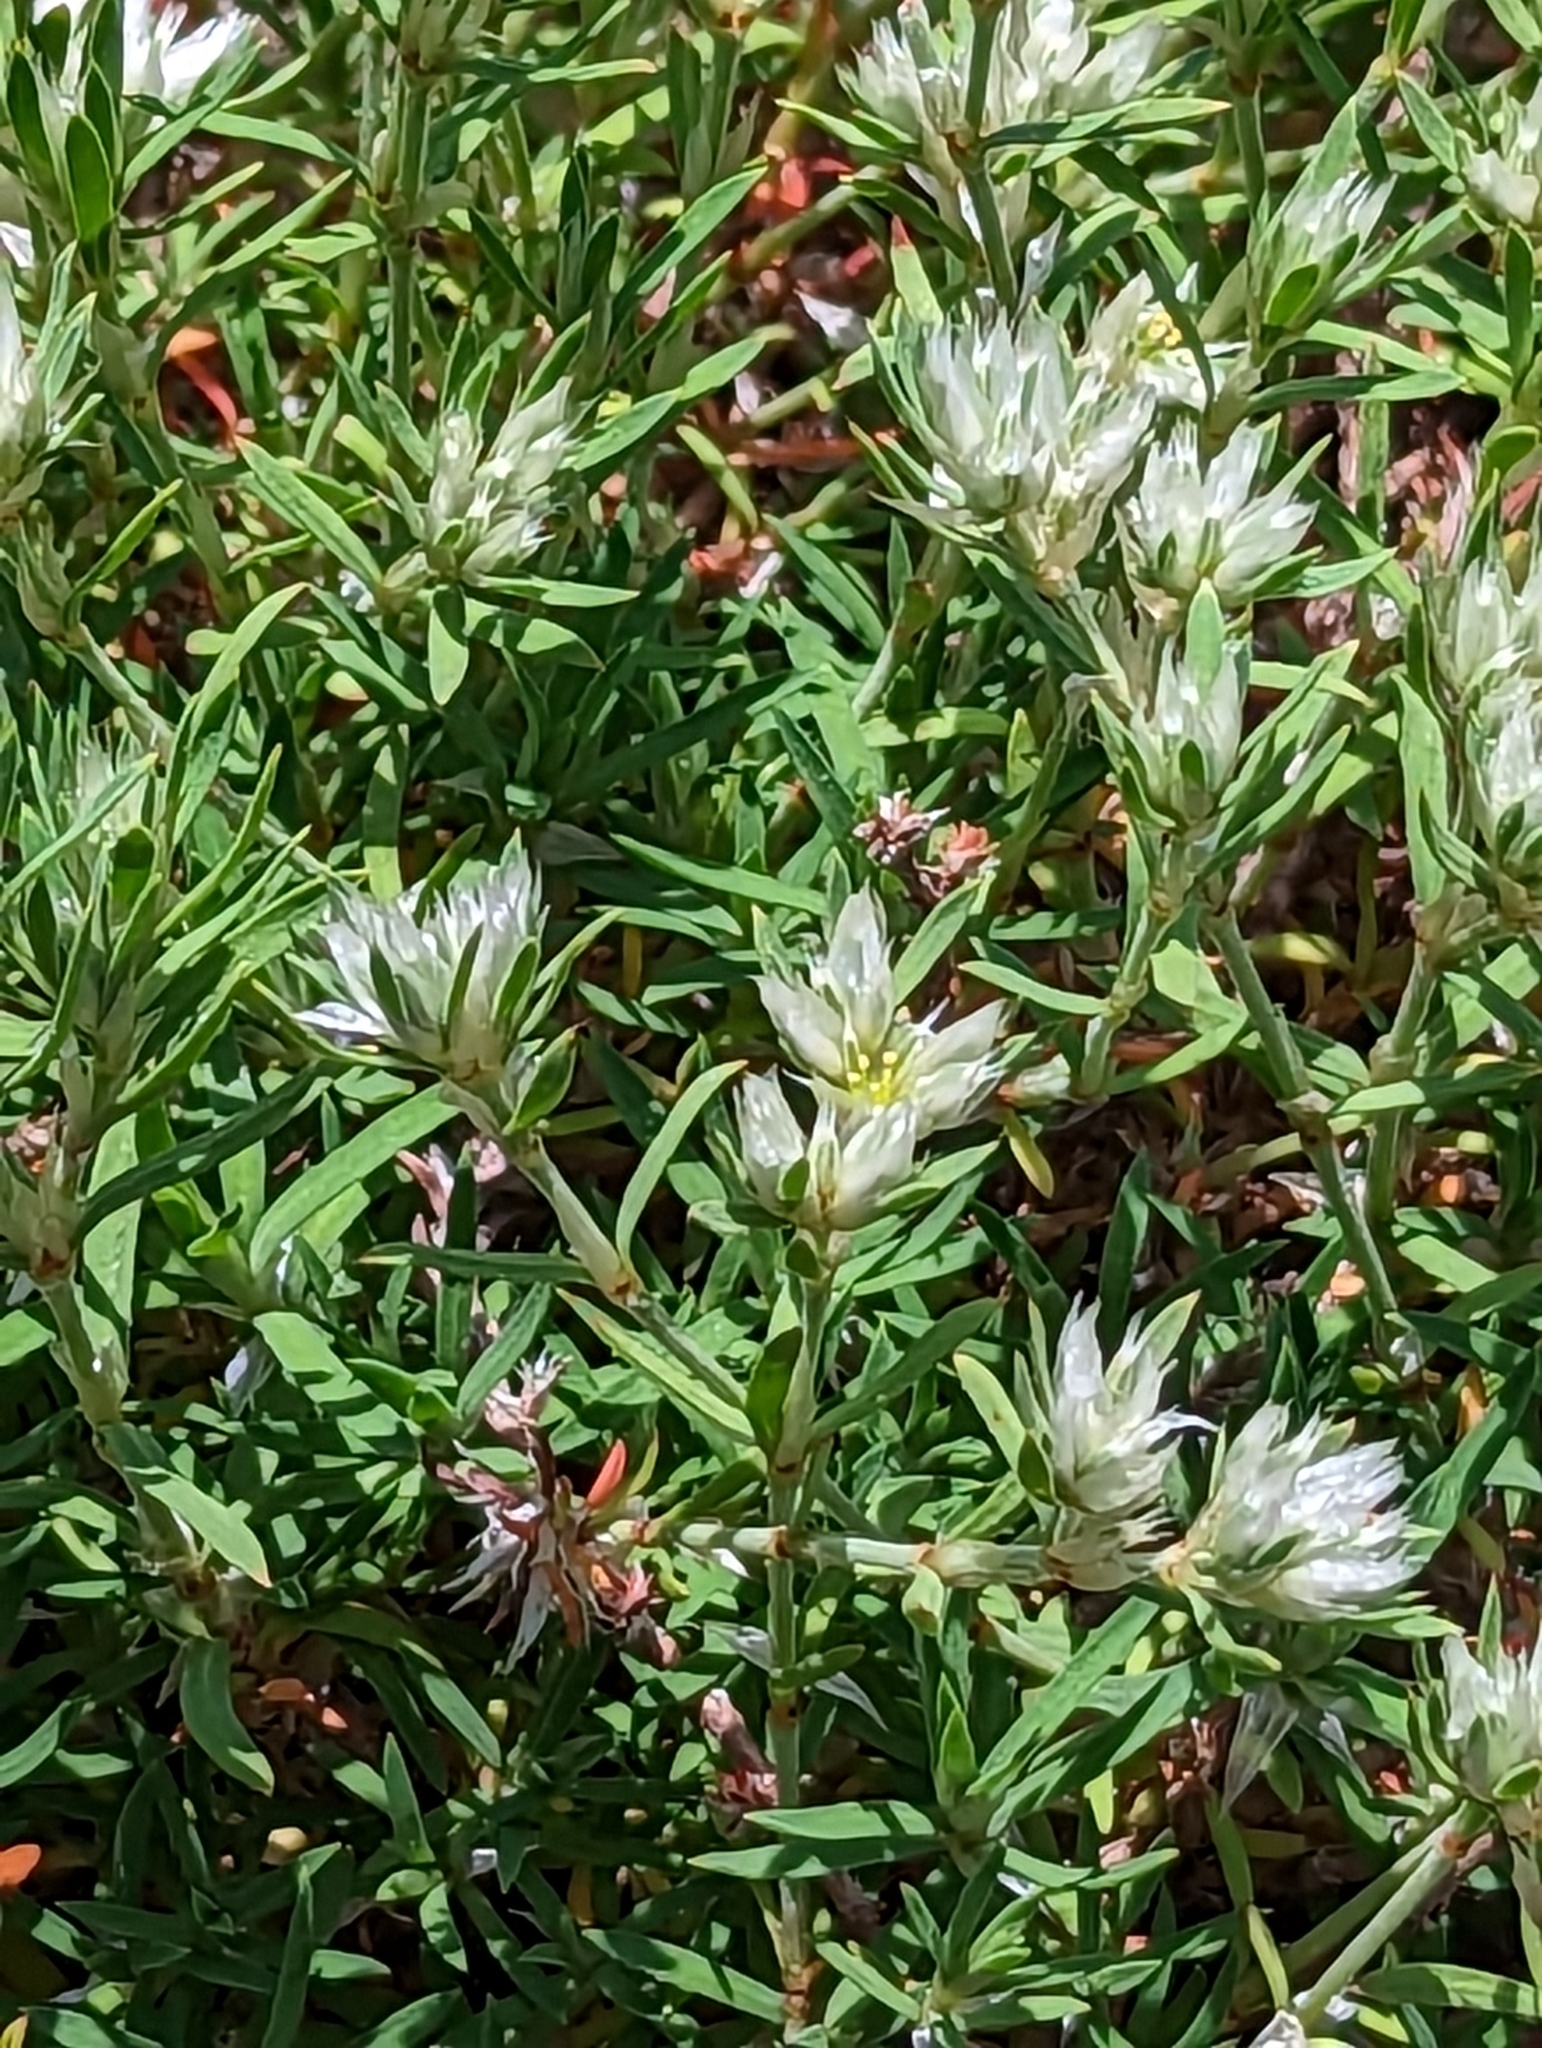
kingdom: Plantae
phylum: Tracheophyta
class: Magnoliopsida
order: Caryophyllales
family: Caryophyllaceae
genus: Paronychia
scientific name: Paronychia argyrocoma
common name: Silverling
